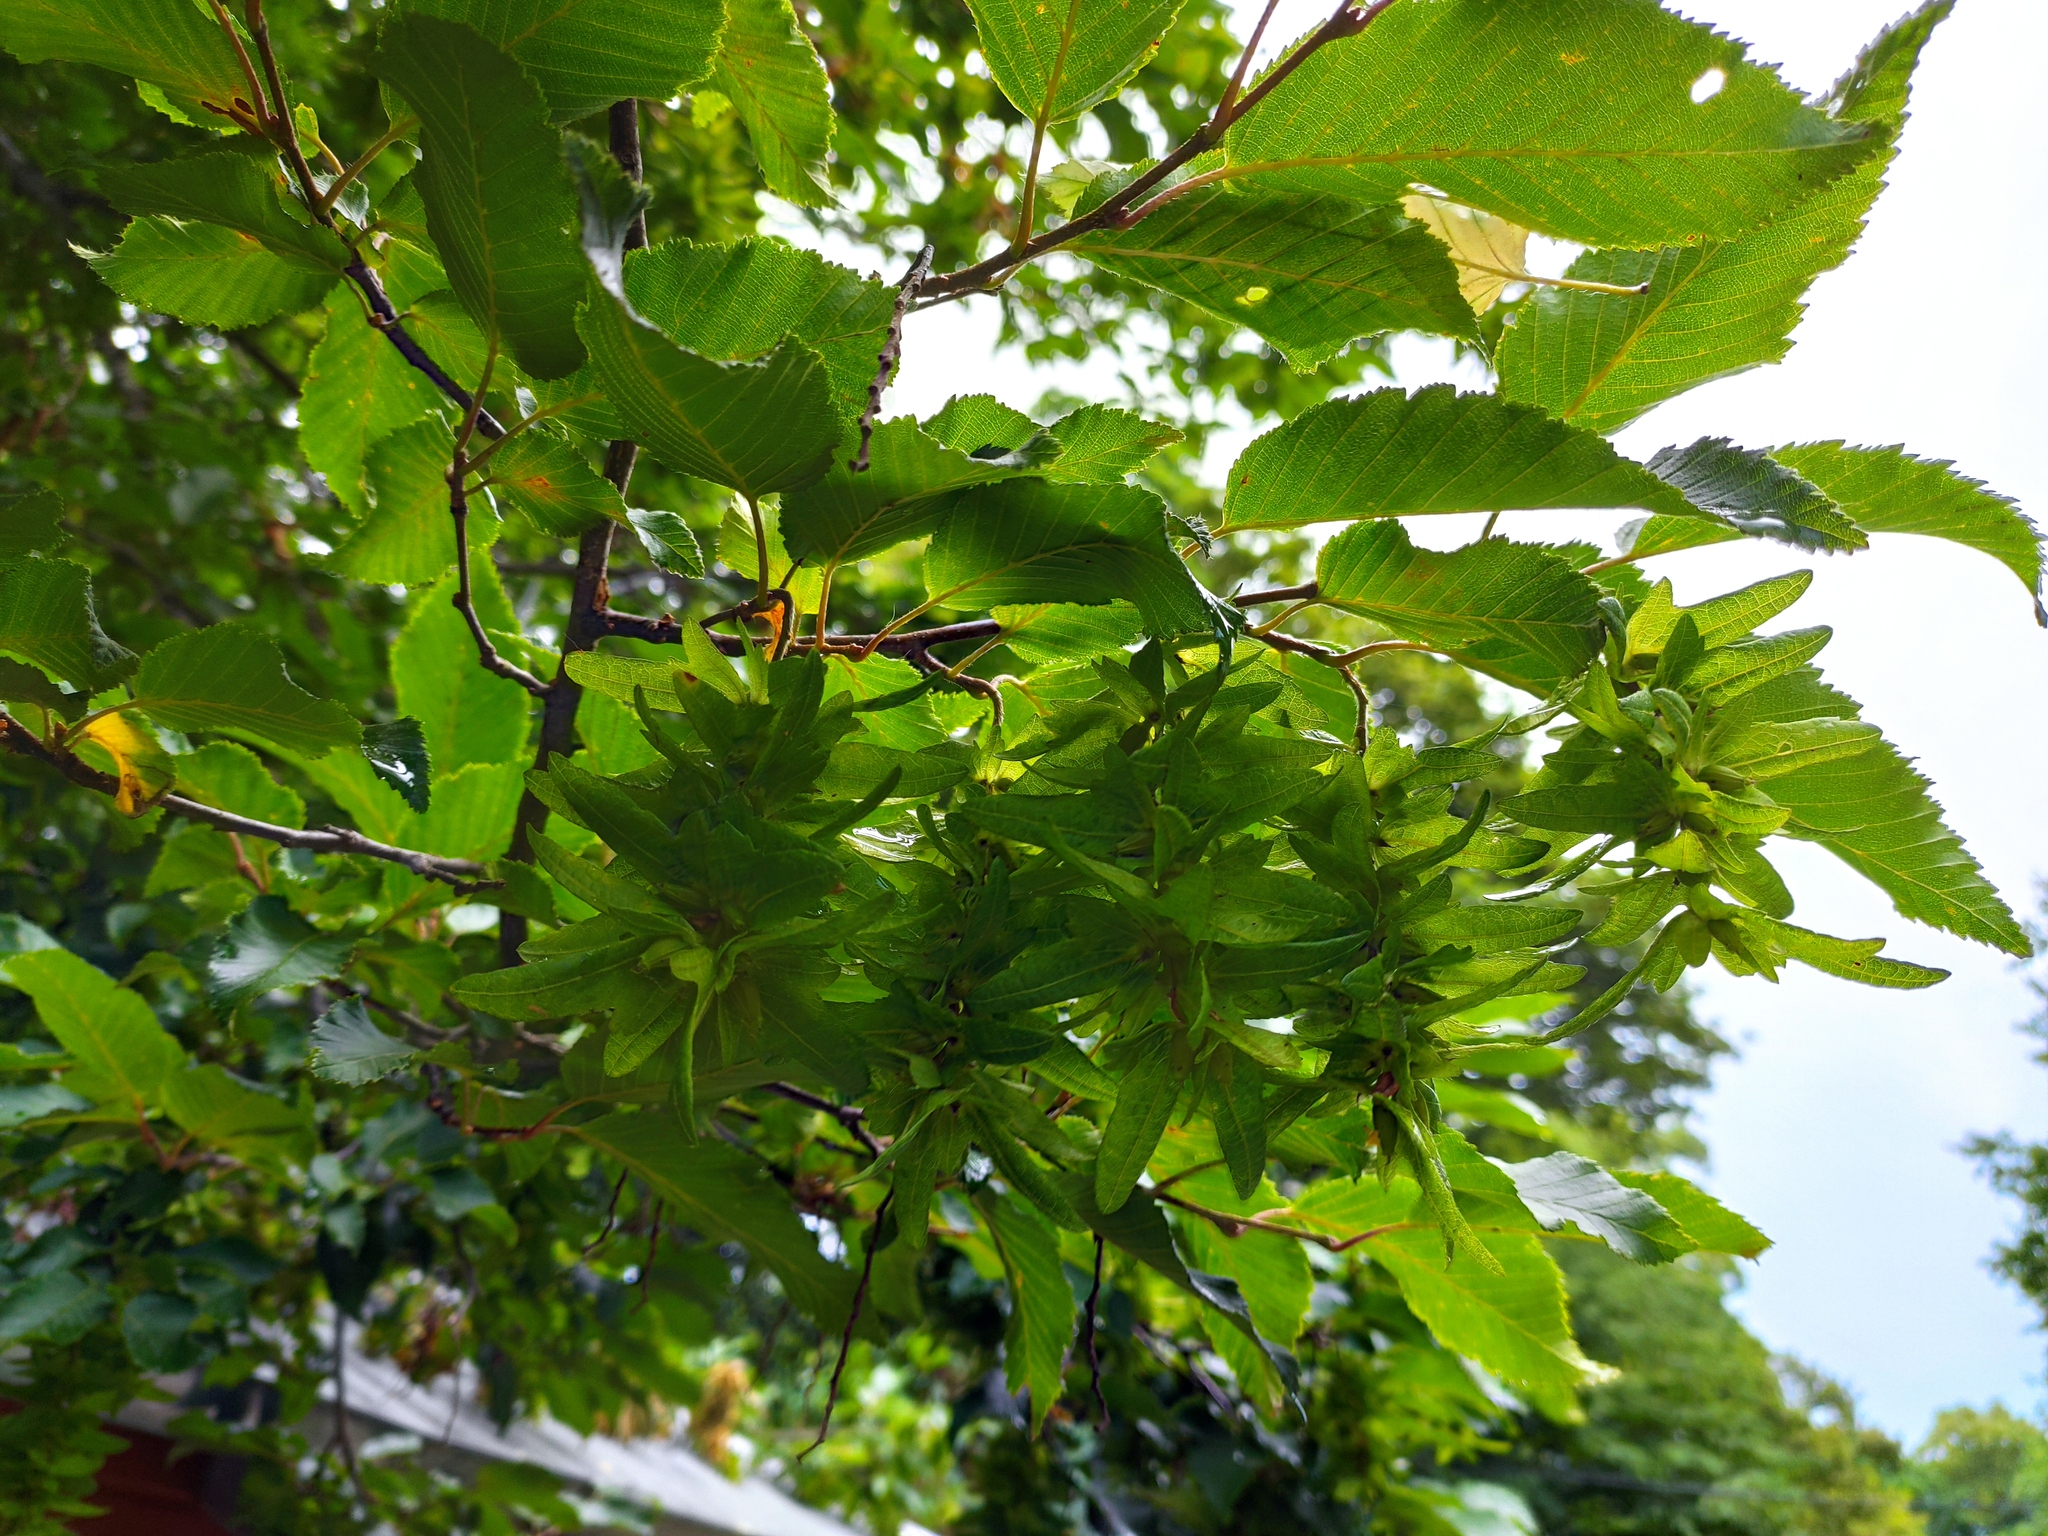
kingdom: Plantae
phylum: Tracheophyta
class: Magnoliopsida
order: Fagales
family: Betulaceae
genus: Carpinus
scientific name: Carpinus betulus
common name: Hornbeam
